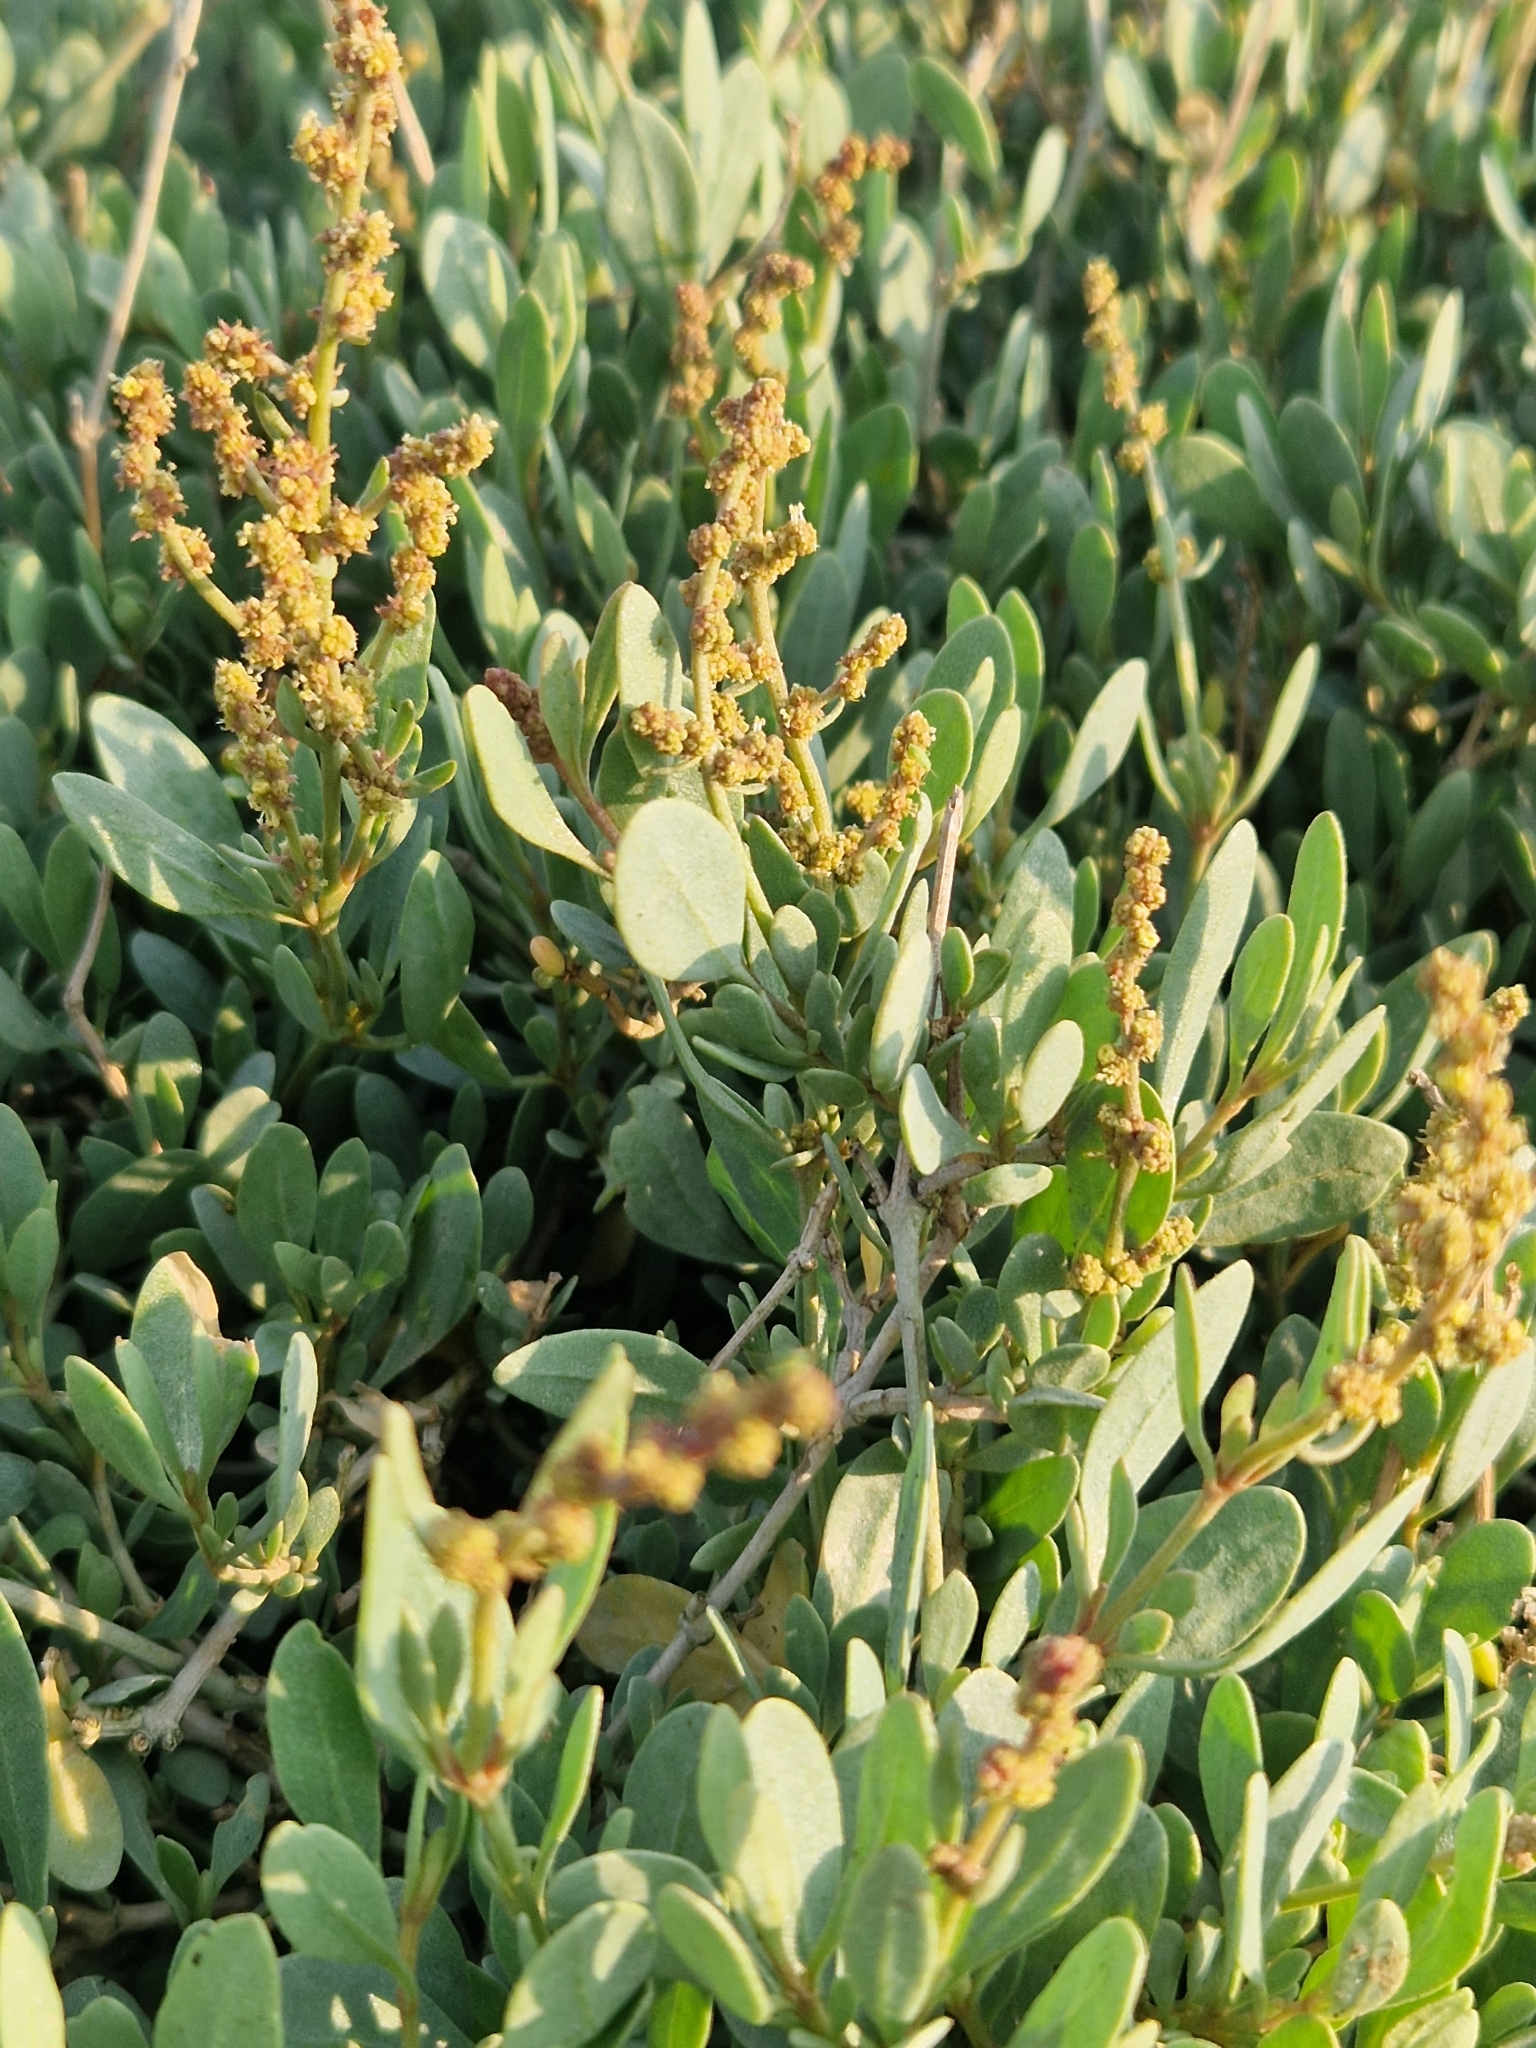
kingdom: Plantae
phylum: Tracheophyta
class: Magnoliopsida
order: Caryophyllales
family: Amaranthaceae
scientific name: Amaranthaceae
